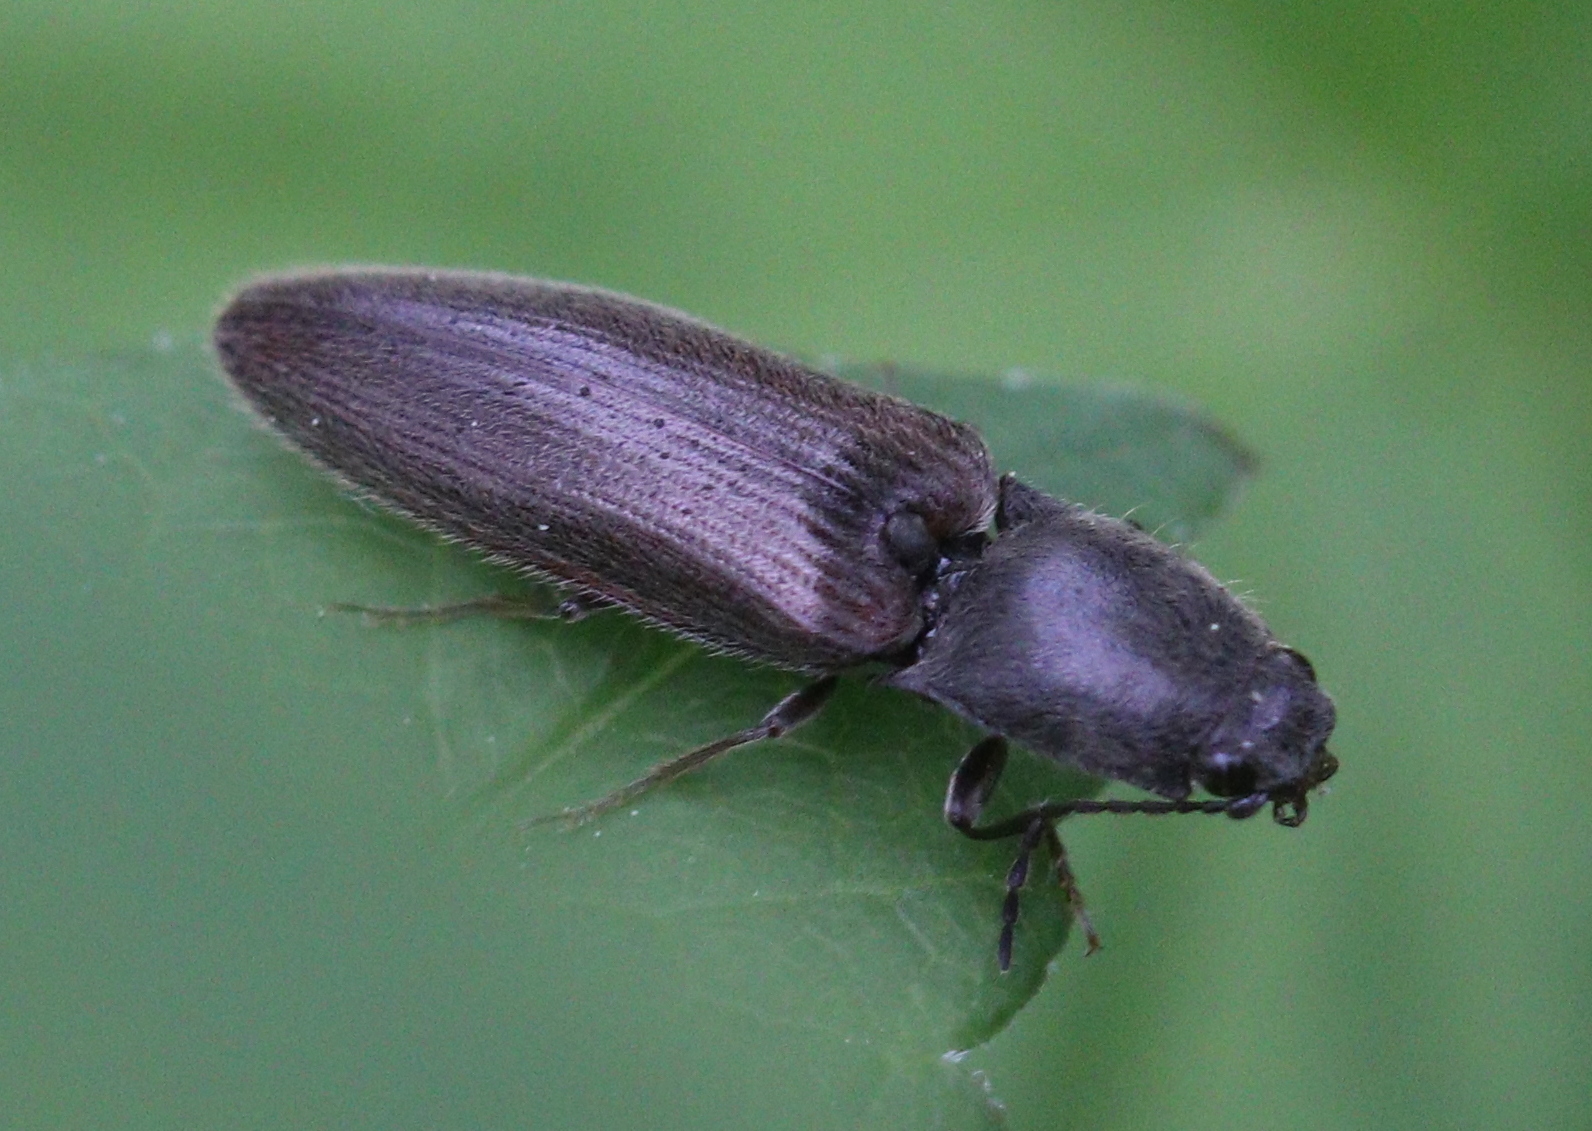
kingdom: Animalia
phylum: Arthropoda
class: Insecta
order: Coleoptera
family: Elateridae
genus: Athous
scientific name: Athous haemorrhoidalis
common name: Red-brown click beetle
